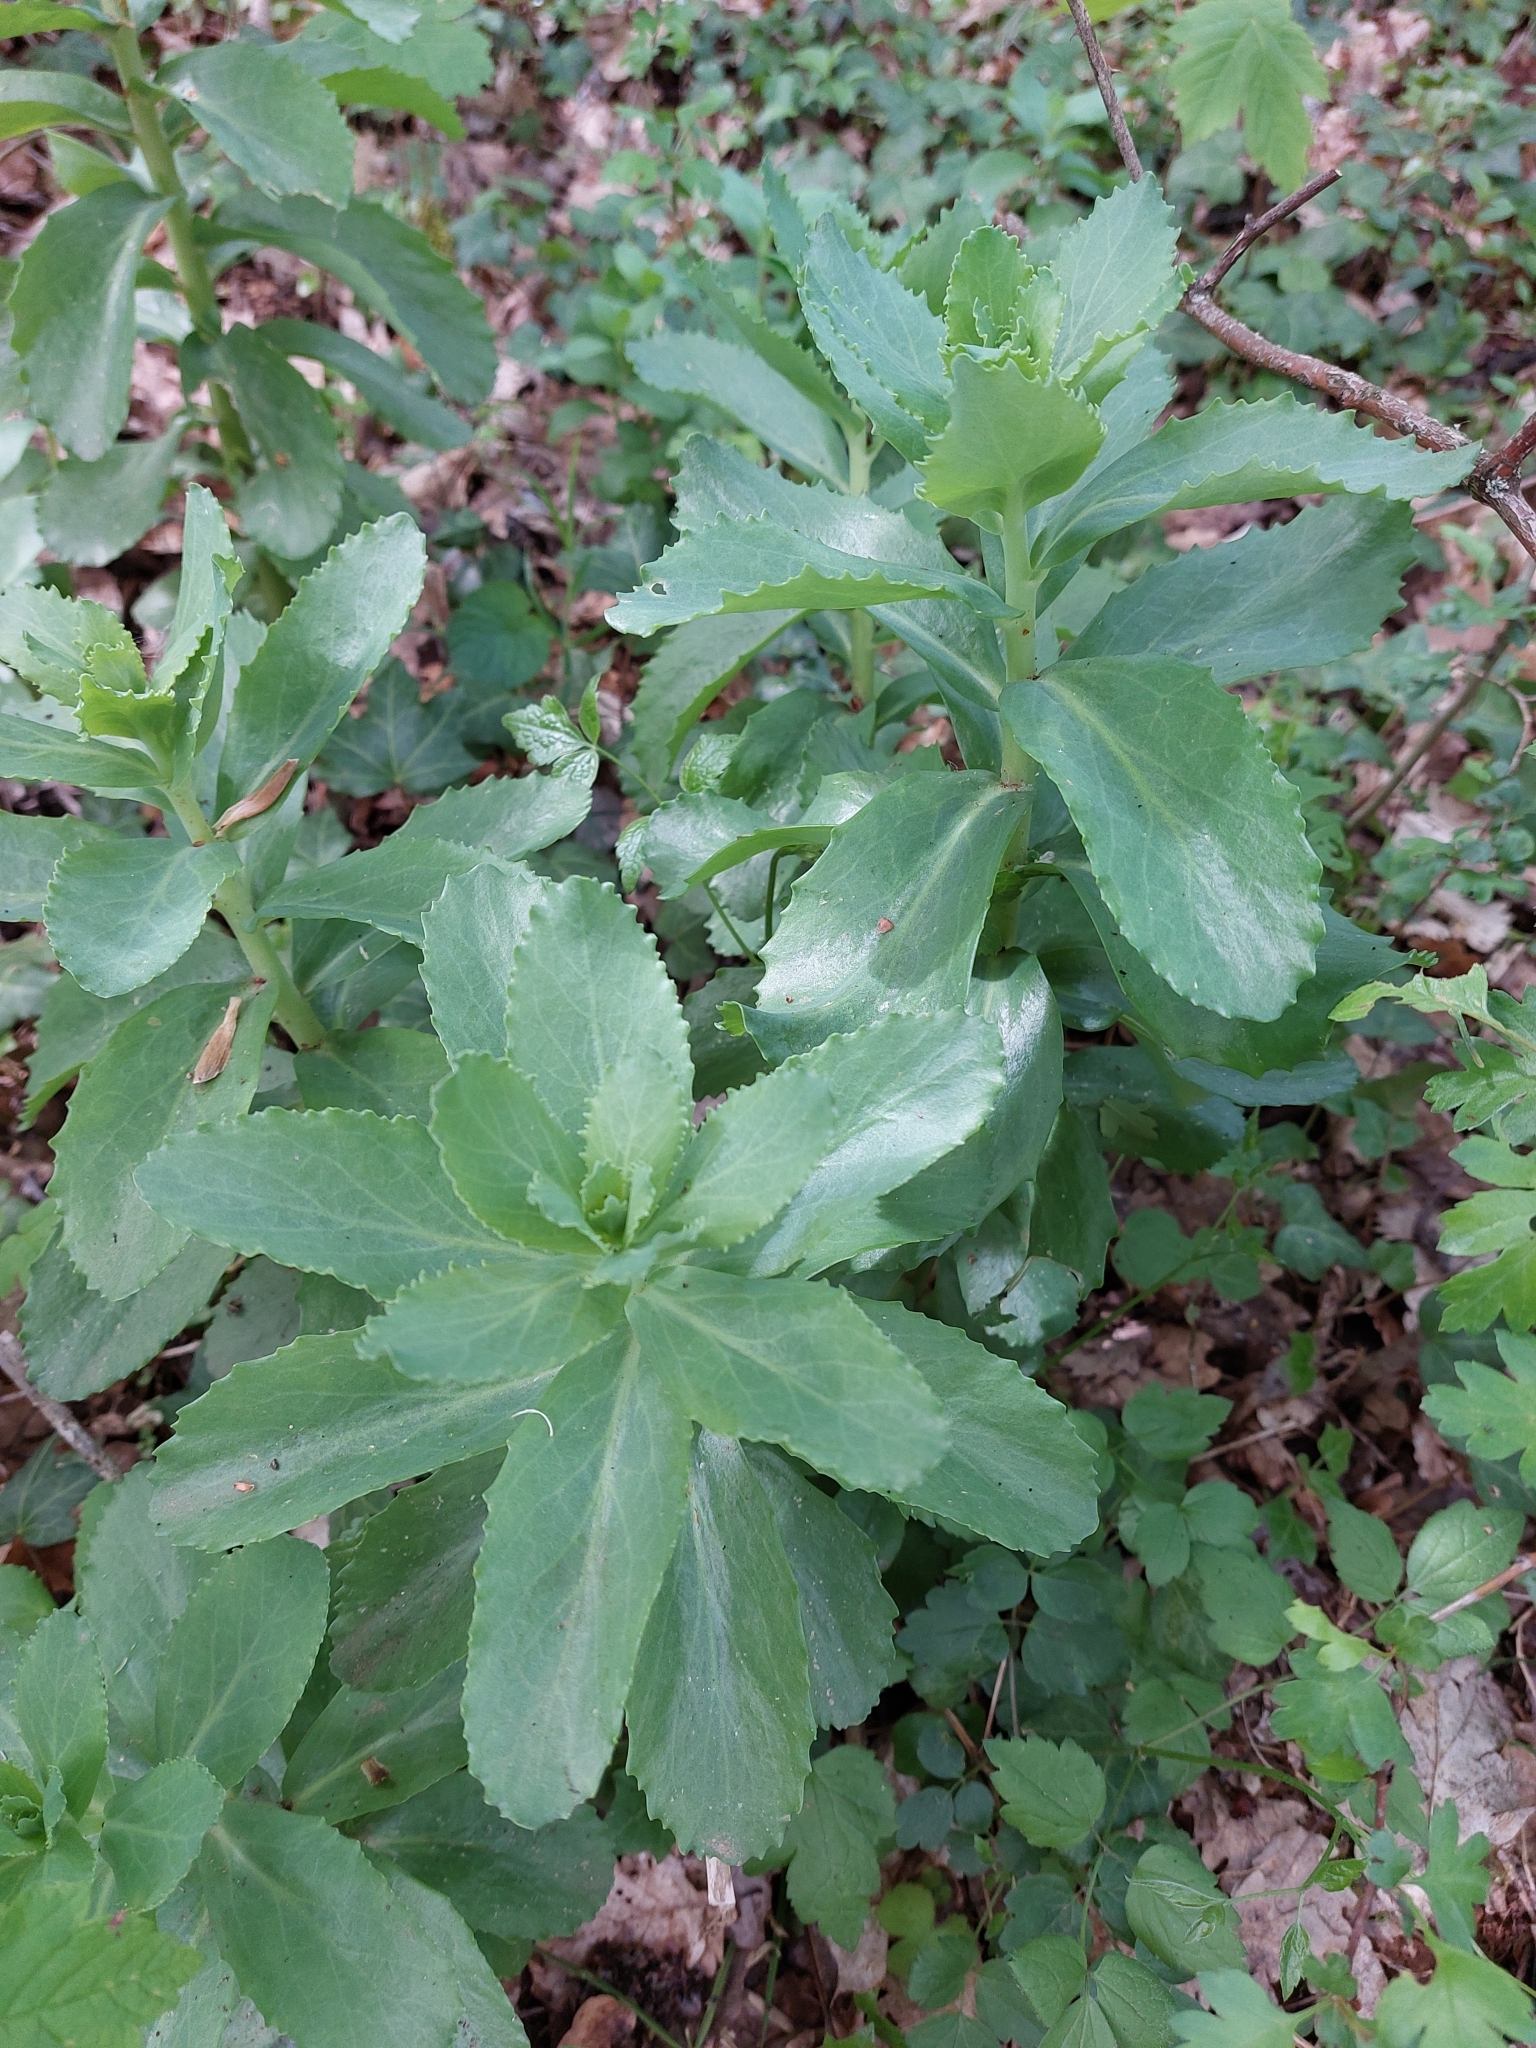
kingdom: Plantae
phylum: Tracheophyta
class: Magnoliopsida
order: Saxifragales
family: Crassulaceae
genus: Hylotelephium
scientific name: Hylotelephium telephium
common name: Live-forever
